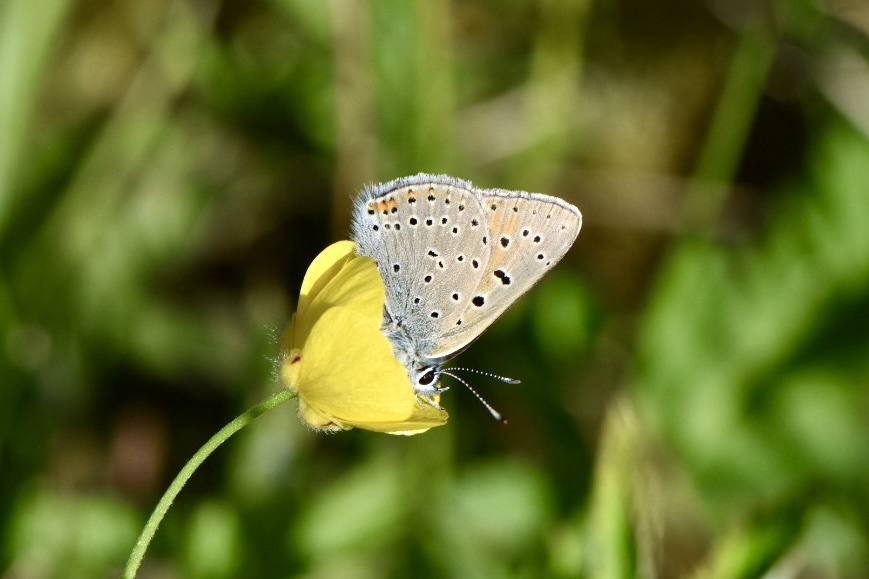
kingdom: Animalia
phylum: Arthropoda
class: Insecta
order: Lepidoptera
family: Lycaenidae
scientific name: Lycaenidae
